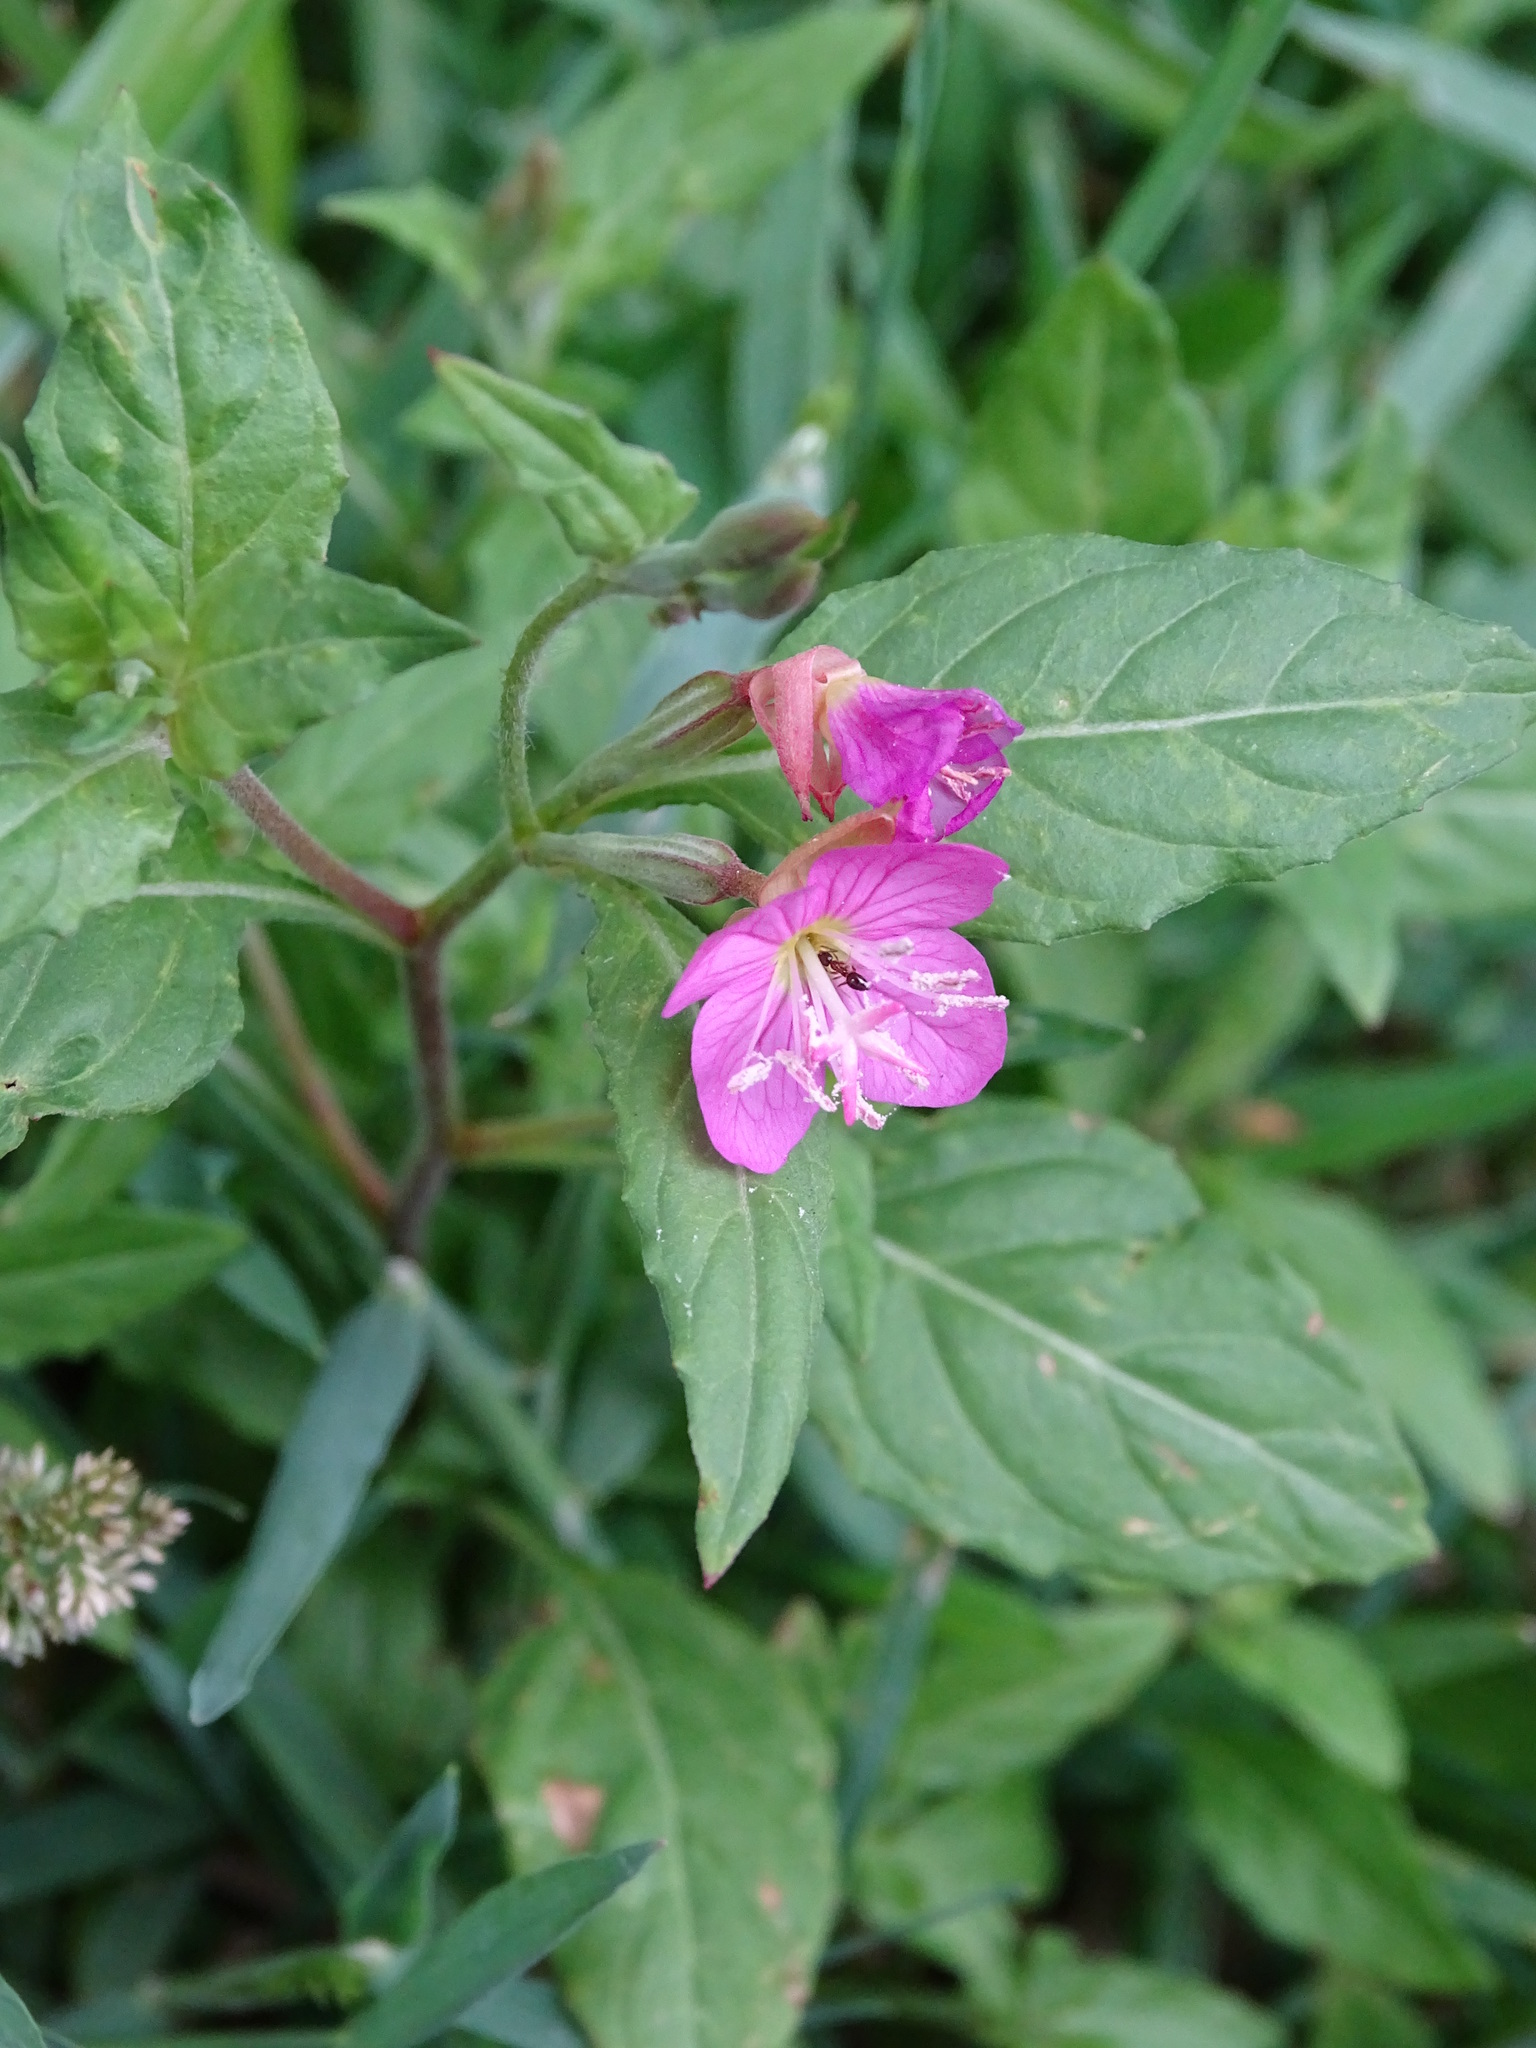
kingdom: Plantae
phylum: Tracheophyta
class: Magnoliopsida
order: Myrtales
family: Onagraceae
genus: Oenothera
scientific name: Oenothera rosea
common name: Rosy evening-primrose
